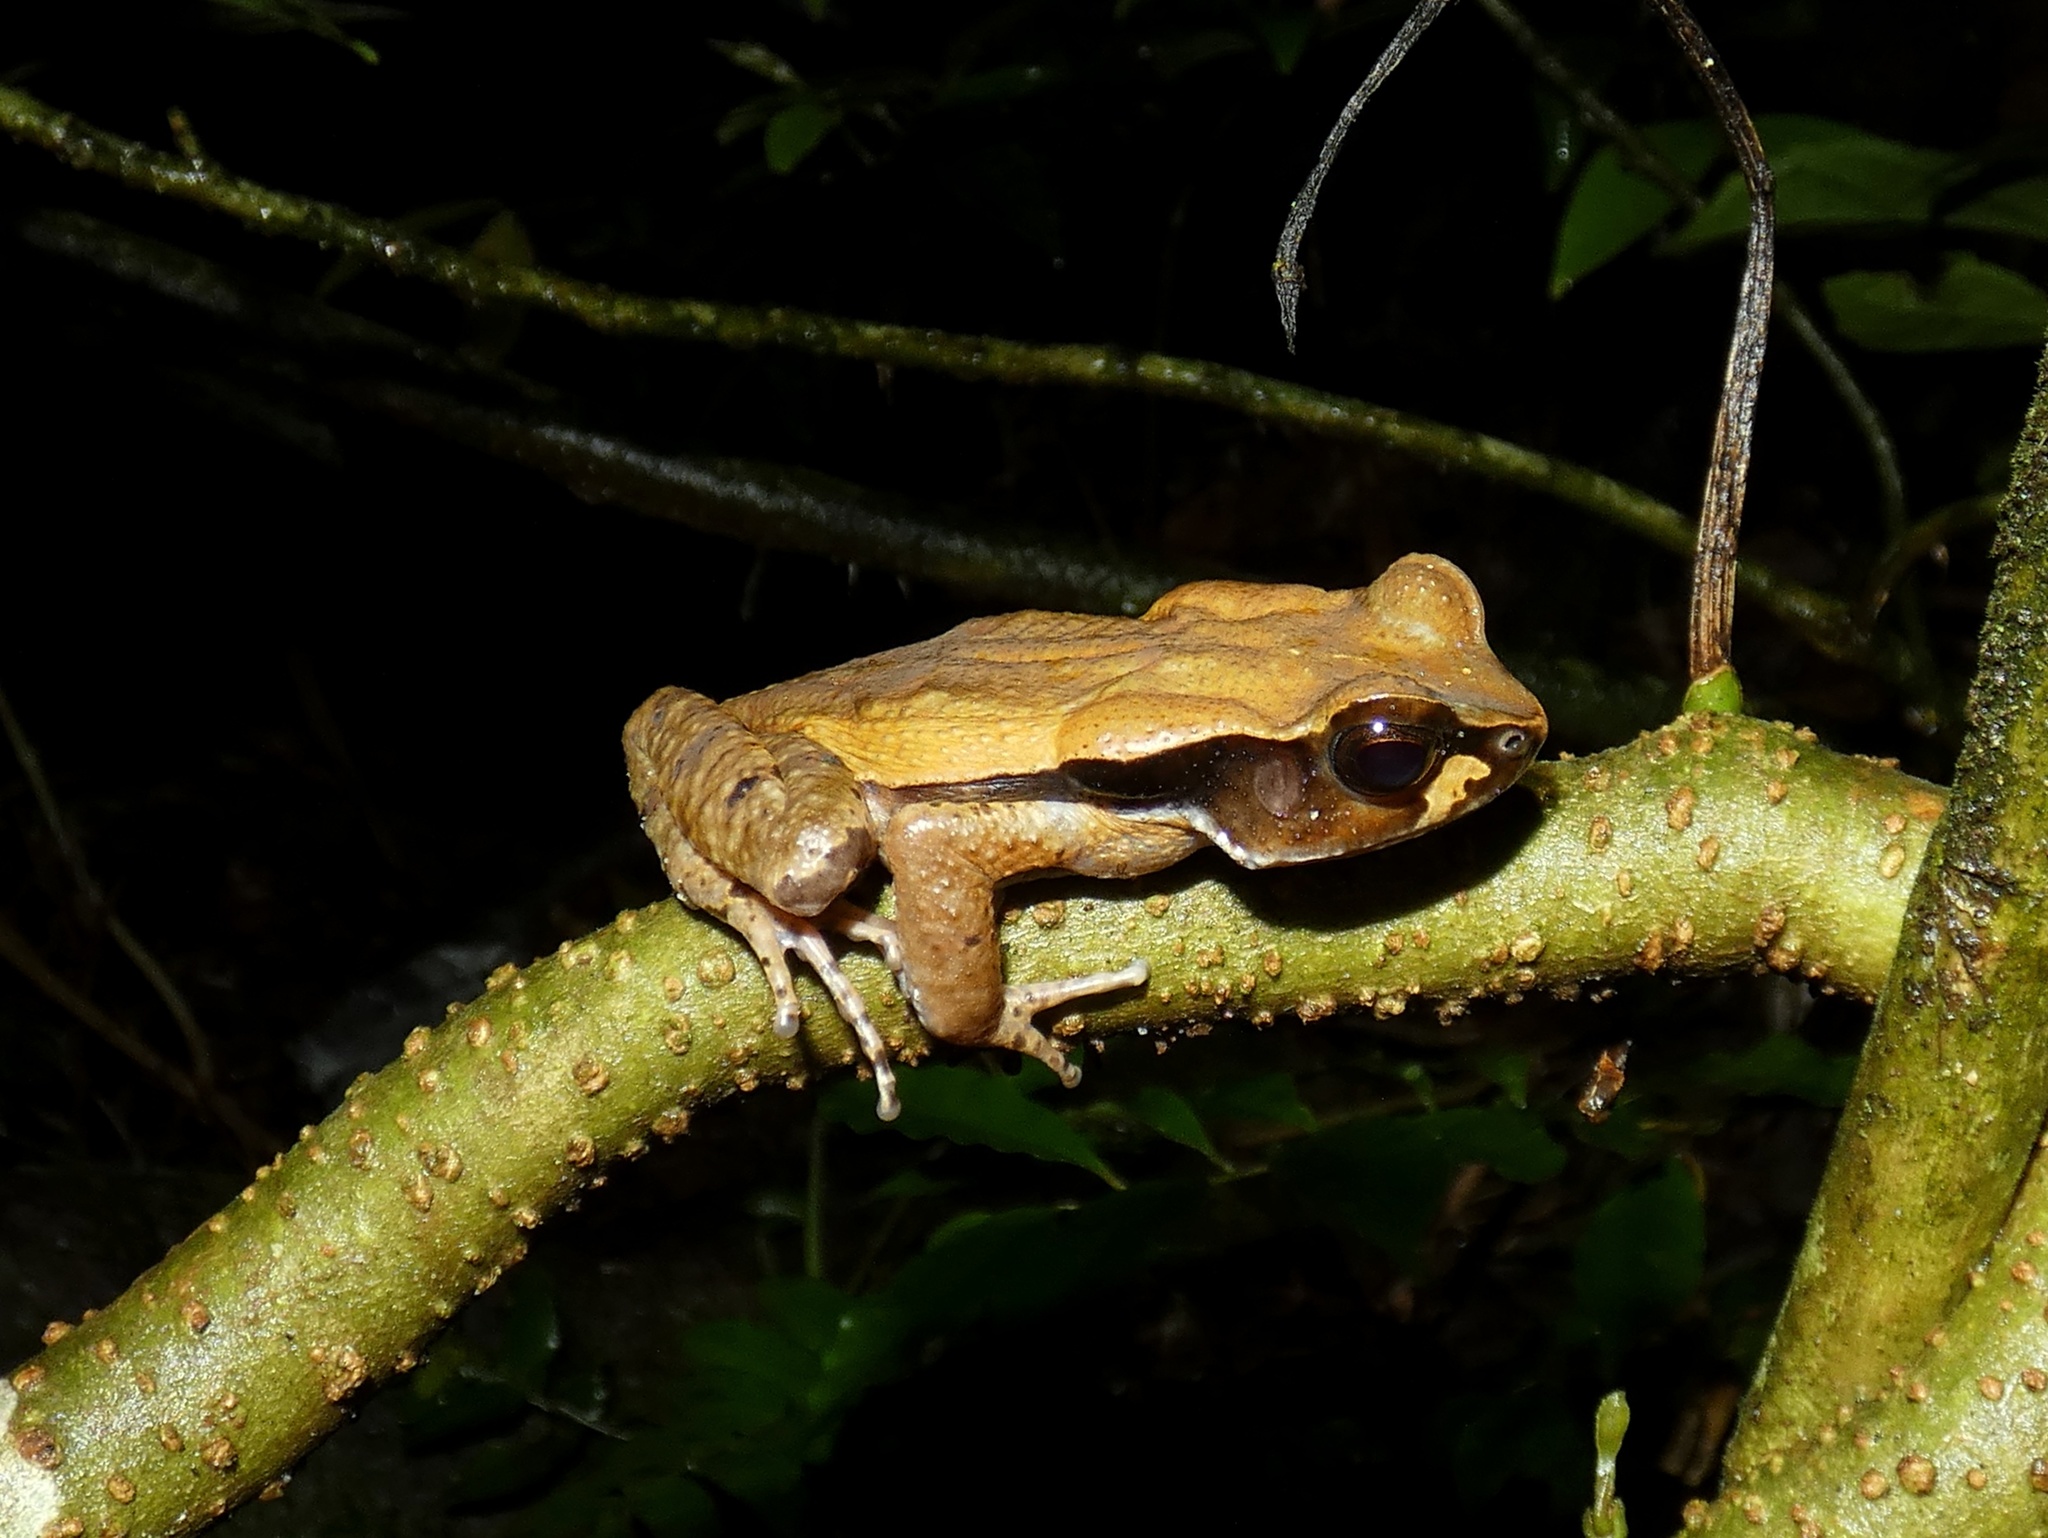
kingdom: Animalia
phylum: Chordata
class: Amphibia
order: Anura
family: Bufonidae
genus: Rhaebo
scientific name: Rhaebo haematiticus
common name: Truando toad
